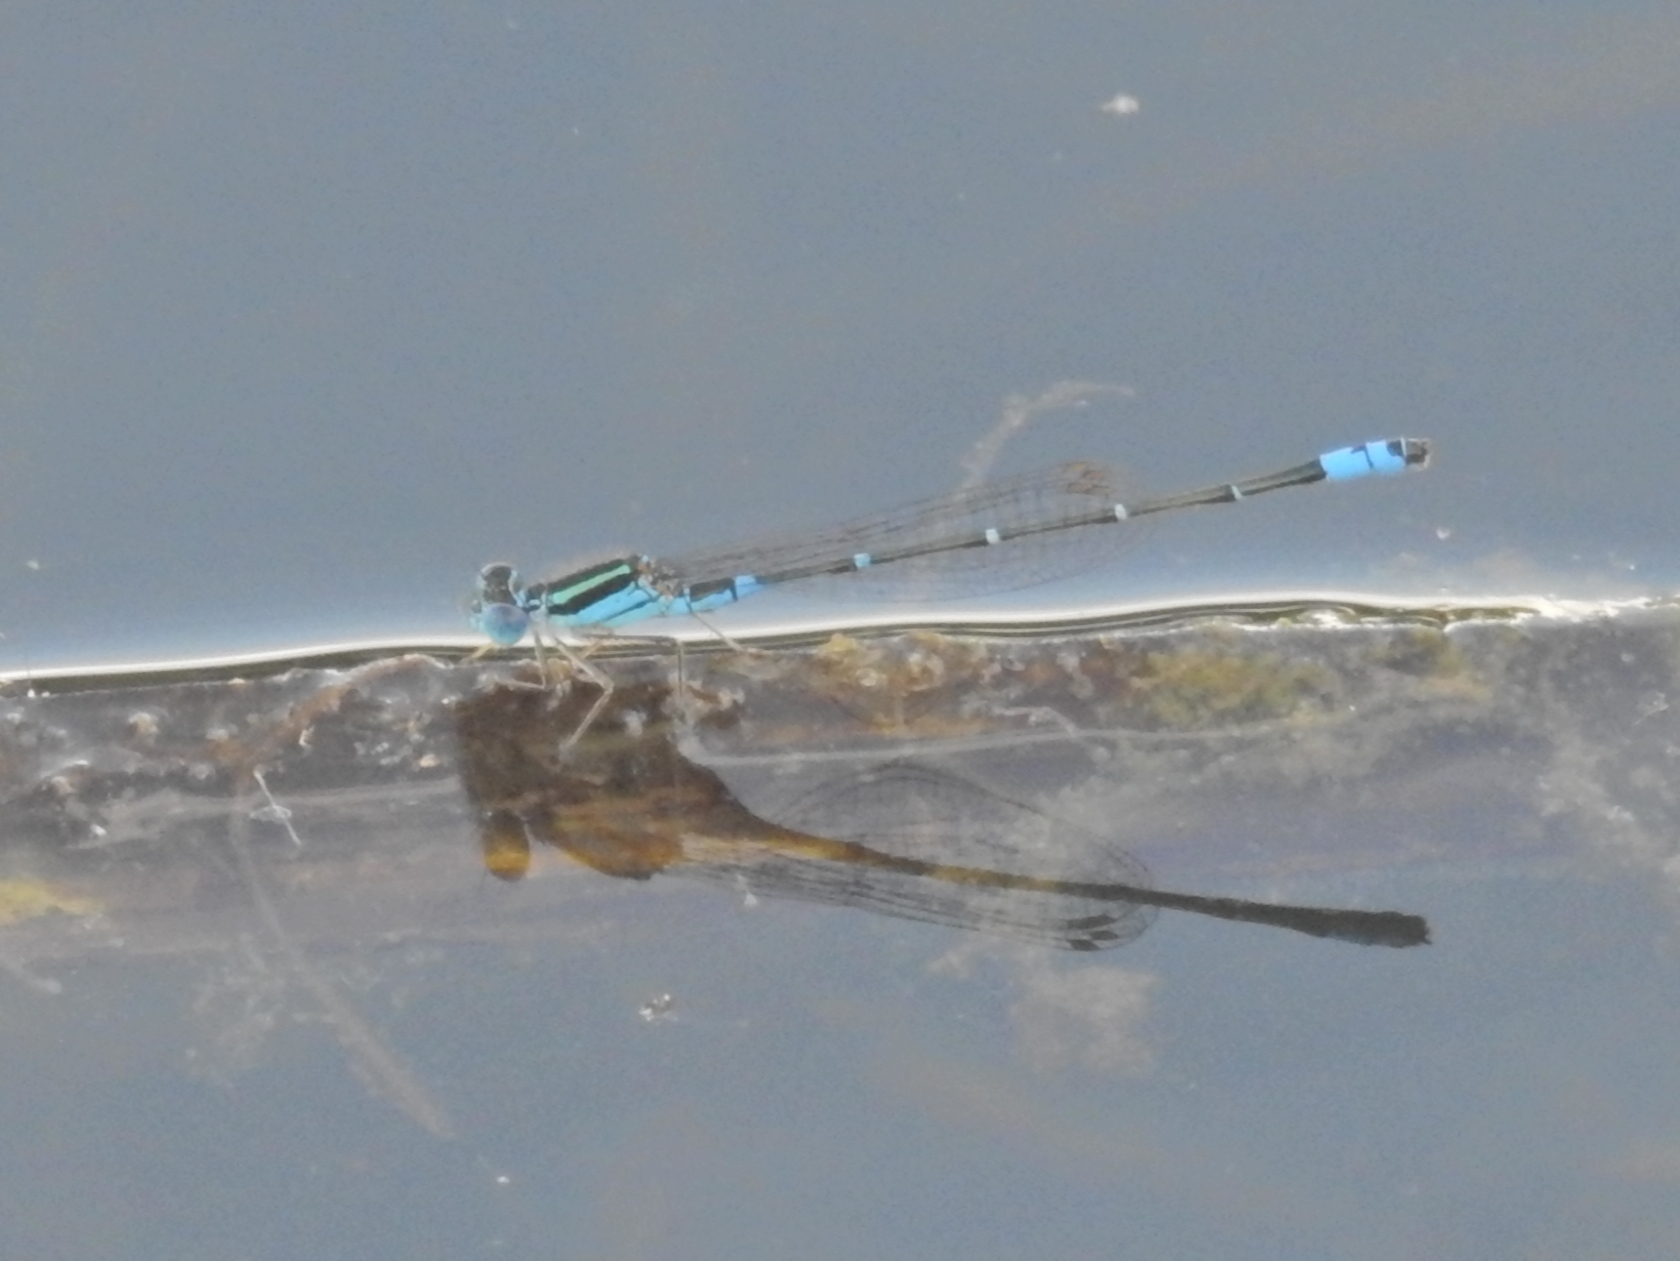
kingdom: Animalia
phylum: Arthropoda
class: Insecta
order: Odonata
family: Coenagrionidae
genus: Austroagrion
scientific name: Austroagrion watsoni
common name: Eastern billabongfly
